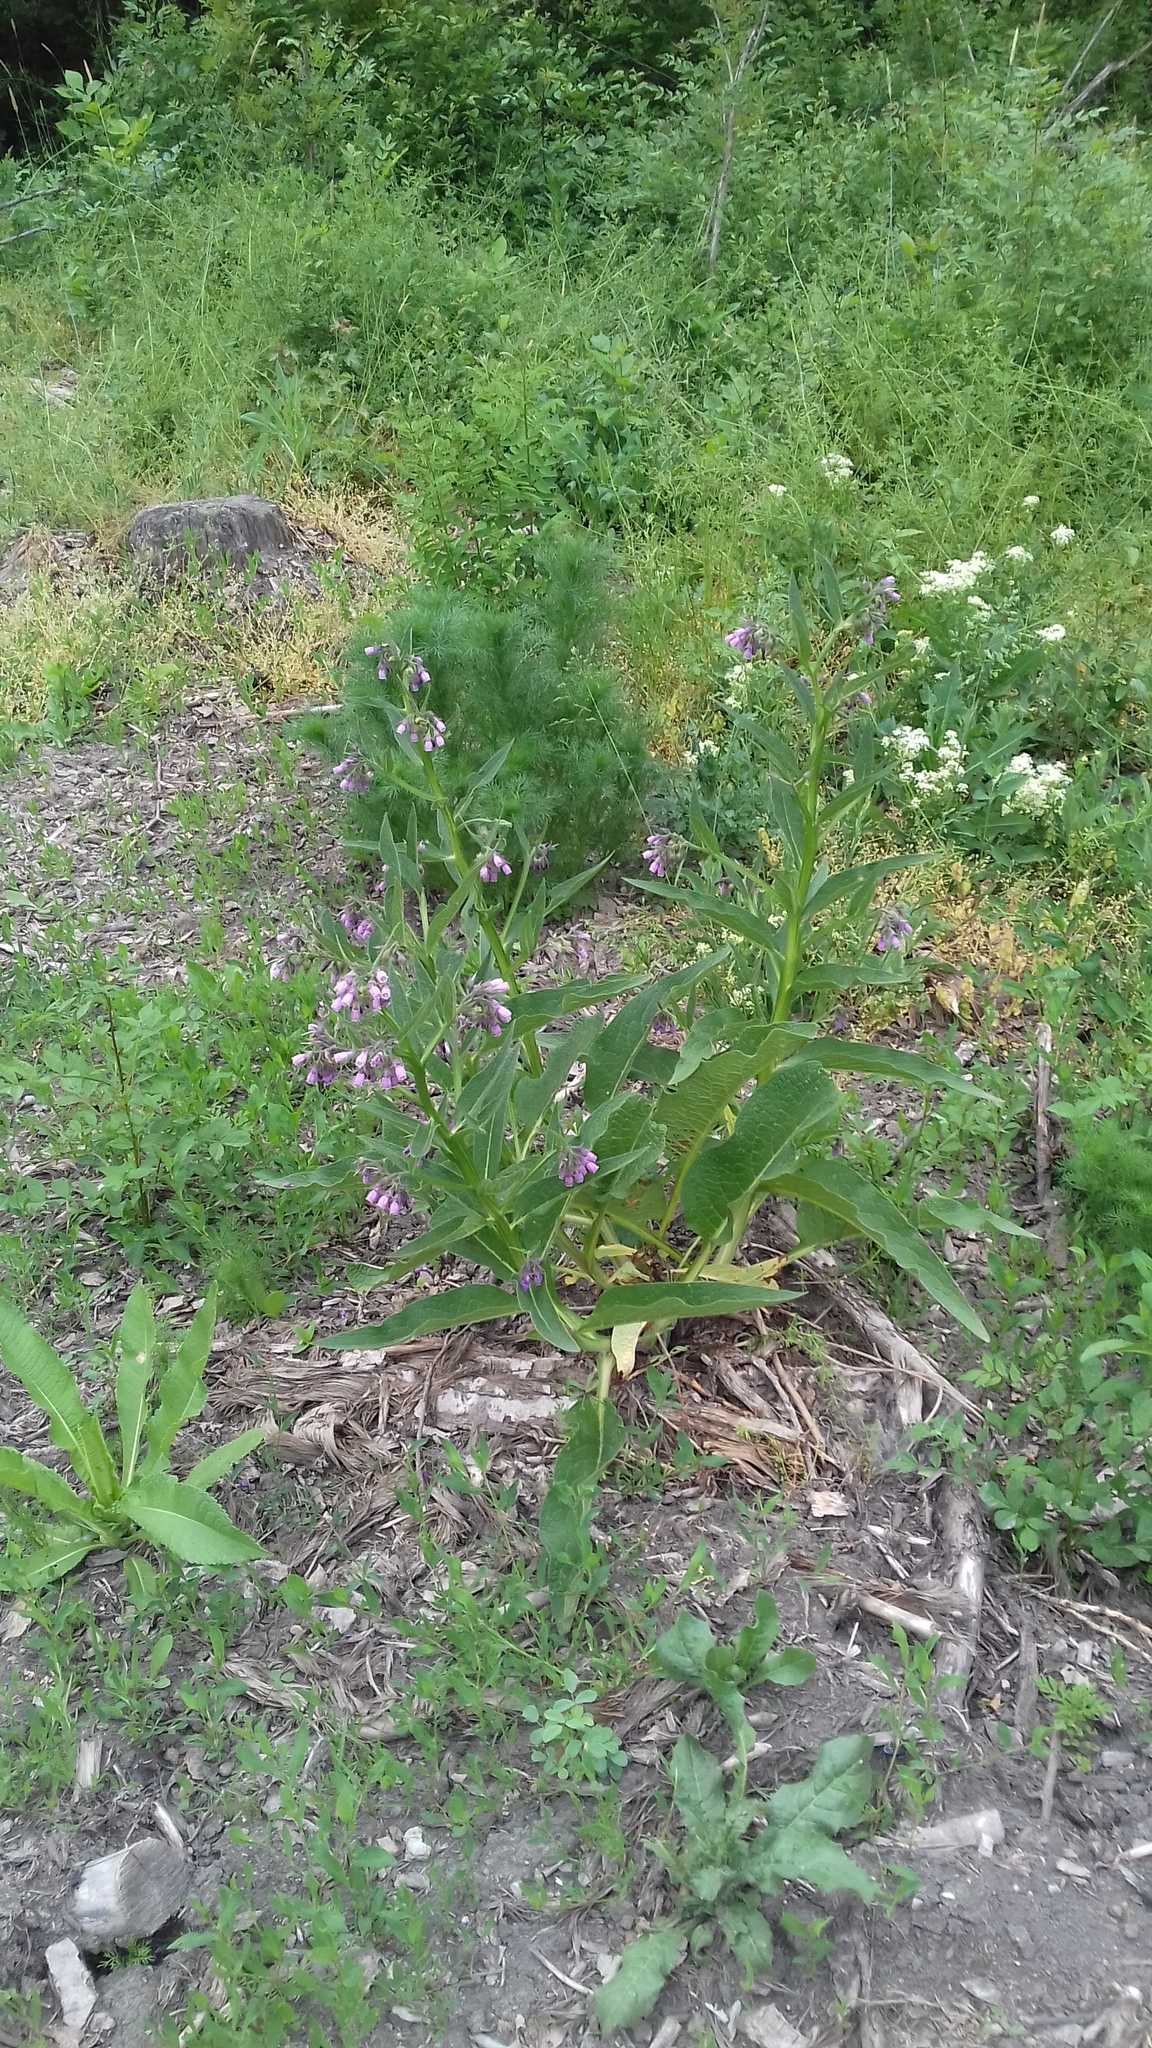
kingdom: Plantae
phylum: Tracheophyta
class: Magnoliopsida
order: Boraginales
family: Boraginaceae
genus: Symphytum
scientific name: Symphytum officinale
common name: Common comfrey
